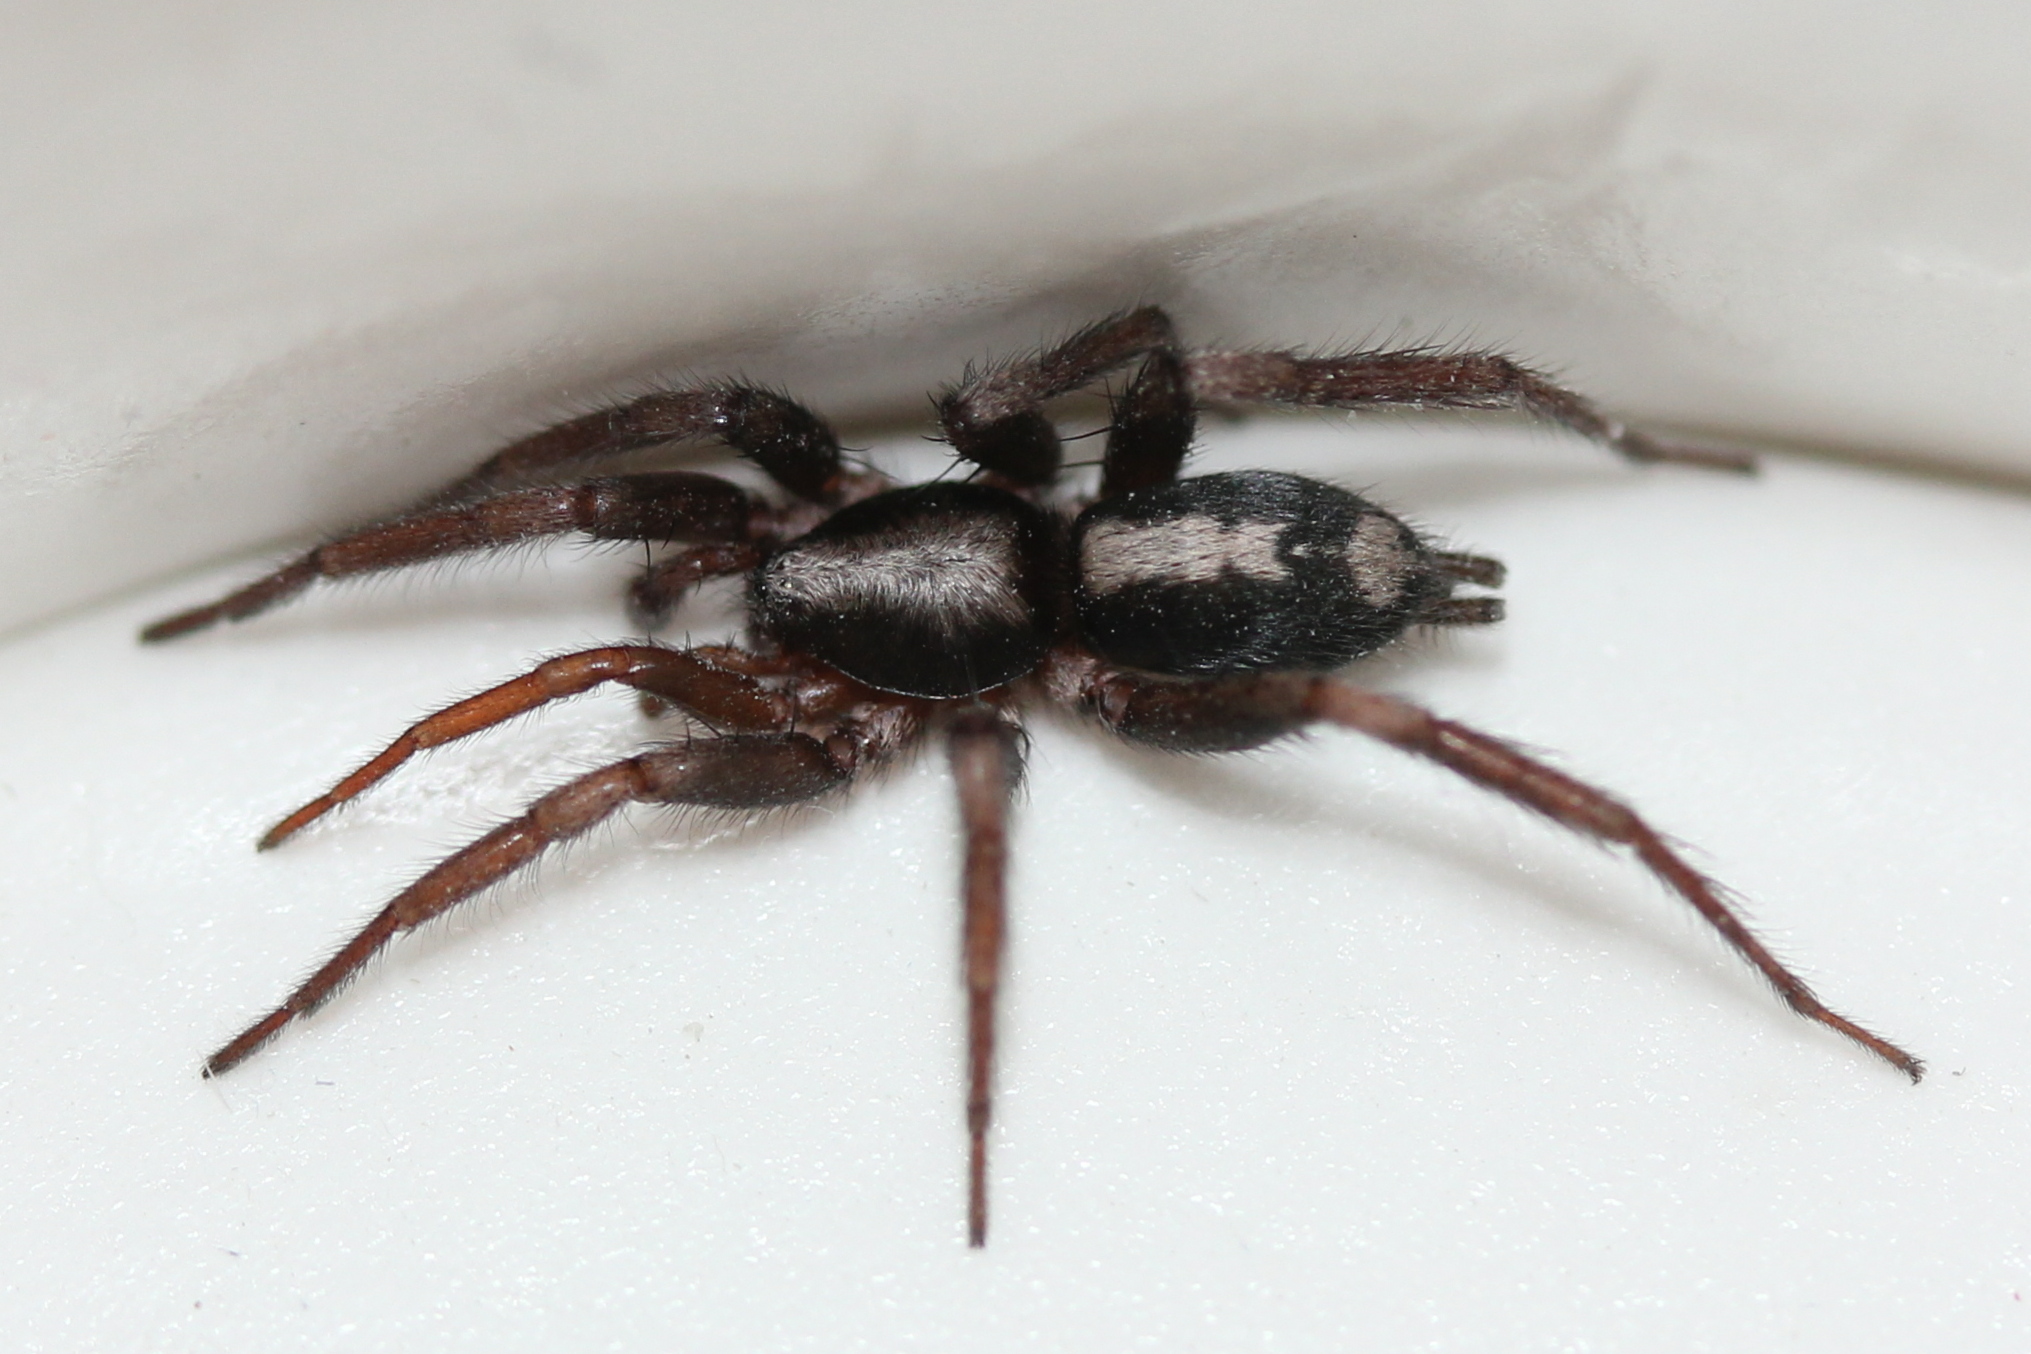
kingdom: Animalia
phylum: Arthropoda
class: Arachnida
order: Araneae
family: Gnaphosidae
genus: Herpyllus
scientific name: Herpyllus ecclesiasticus
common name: Eastern parson spider
